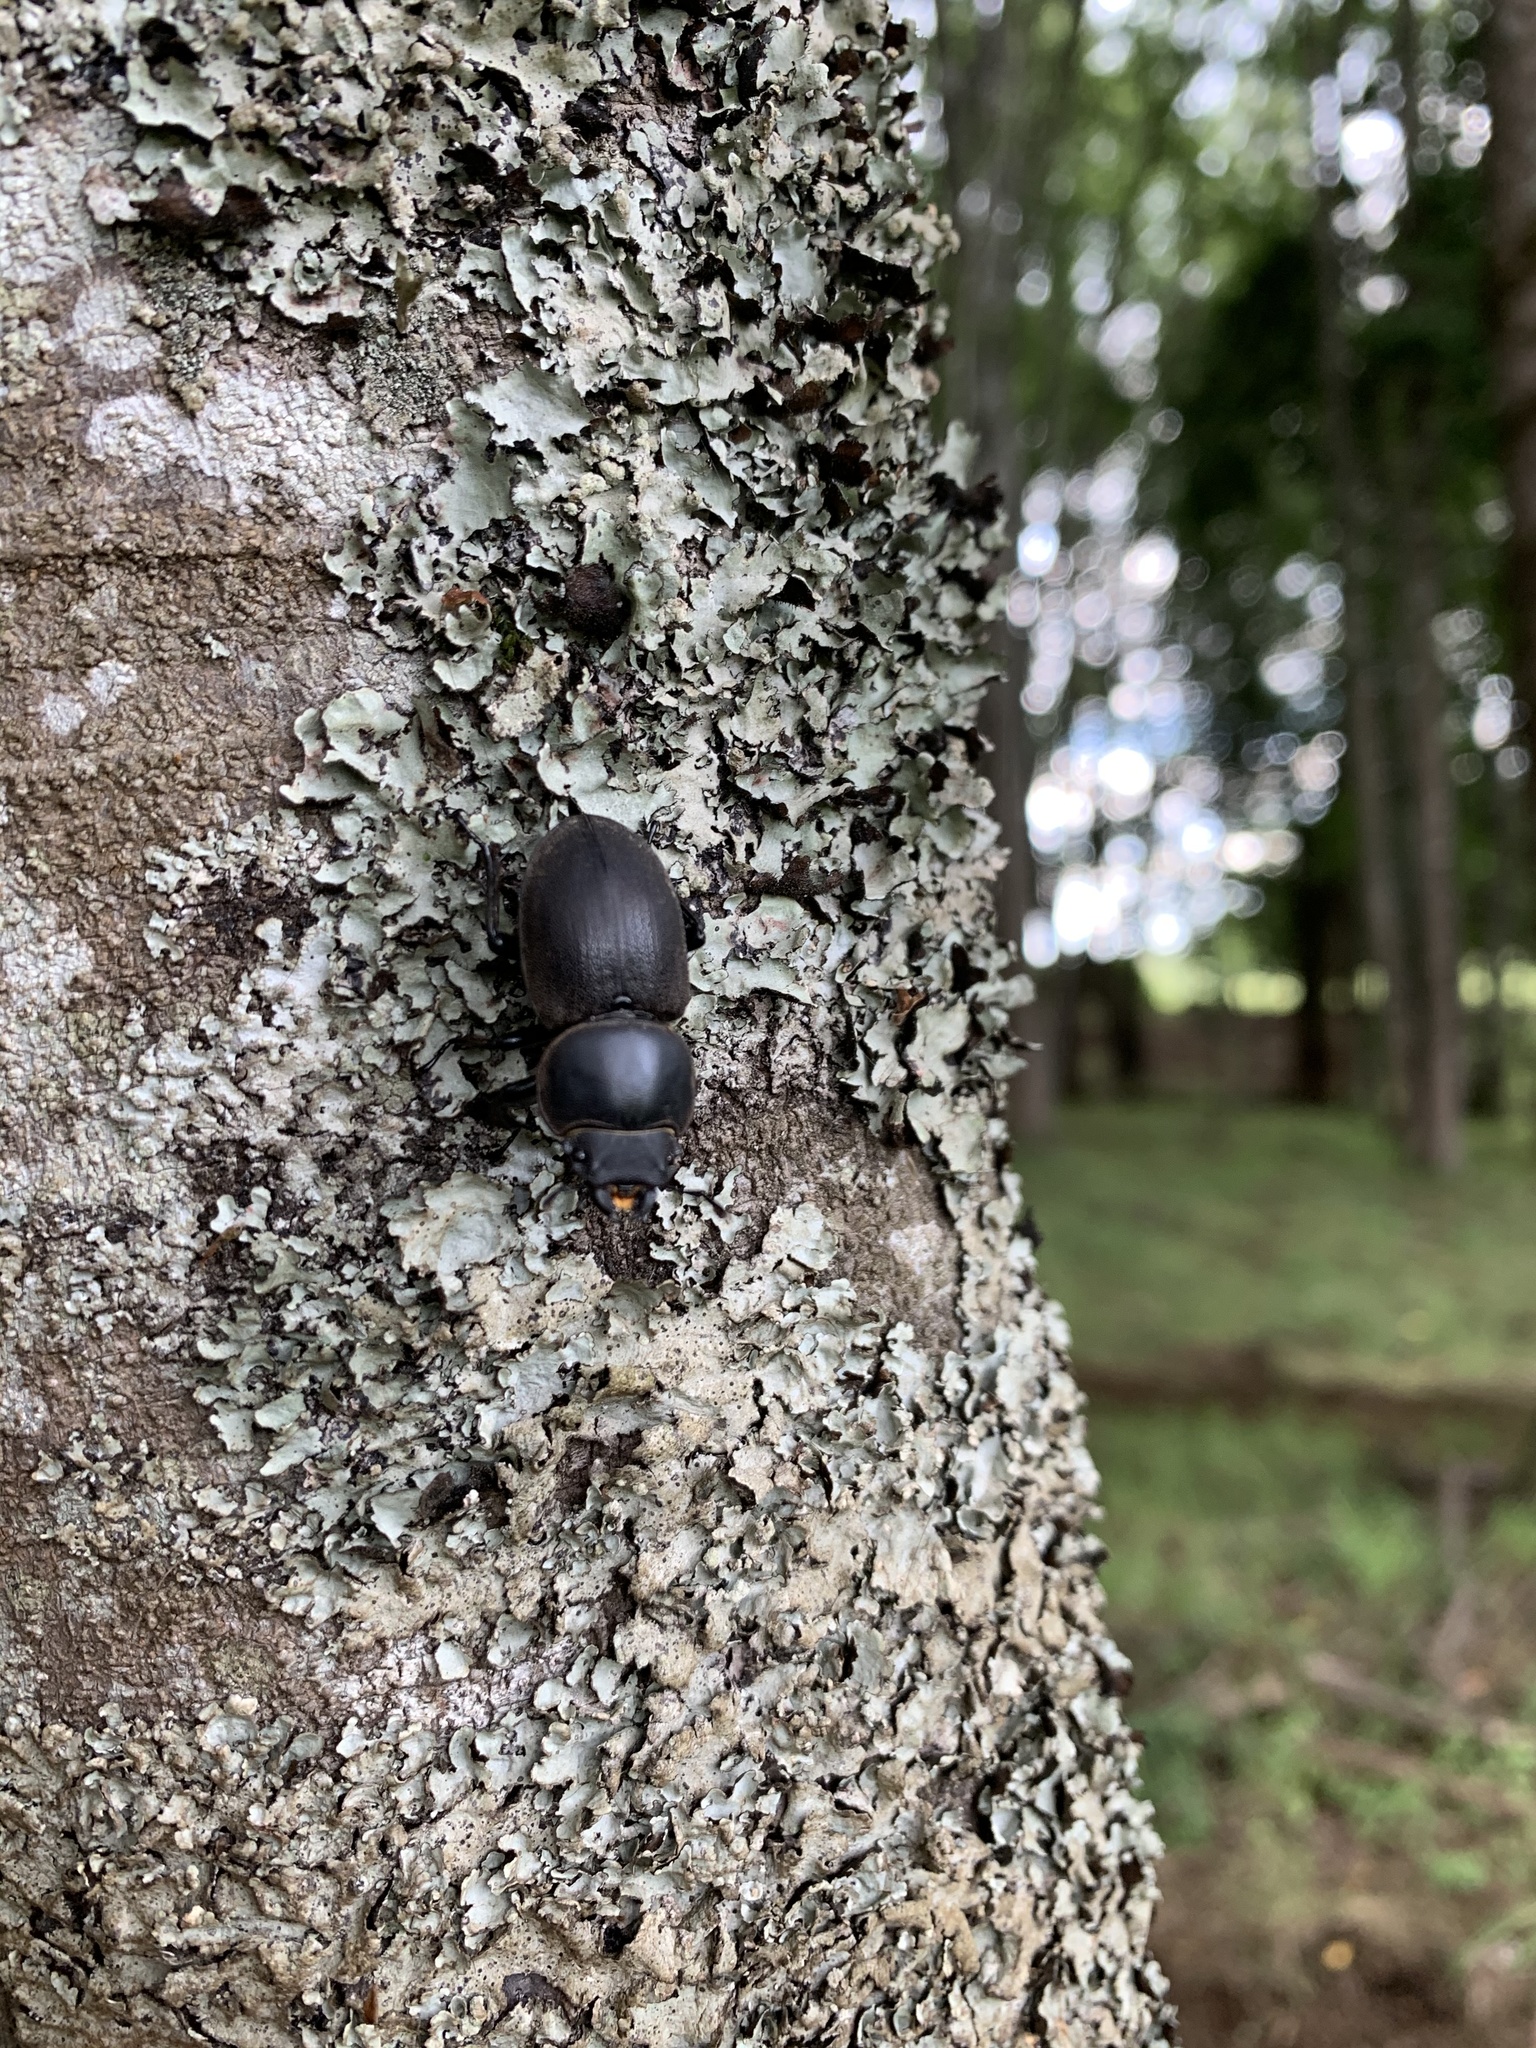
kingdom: Animalia
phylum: Arthropoda
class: Insecta
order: Coleoptera
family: Lucanidae
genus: Apterodorcus
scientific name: Apterodorcus bacchus
